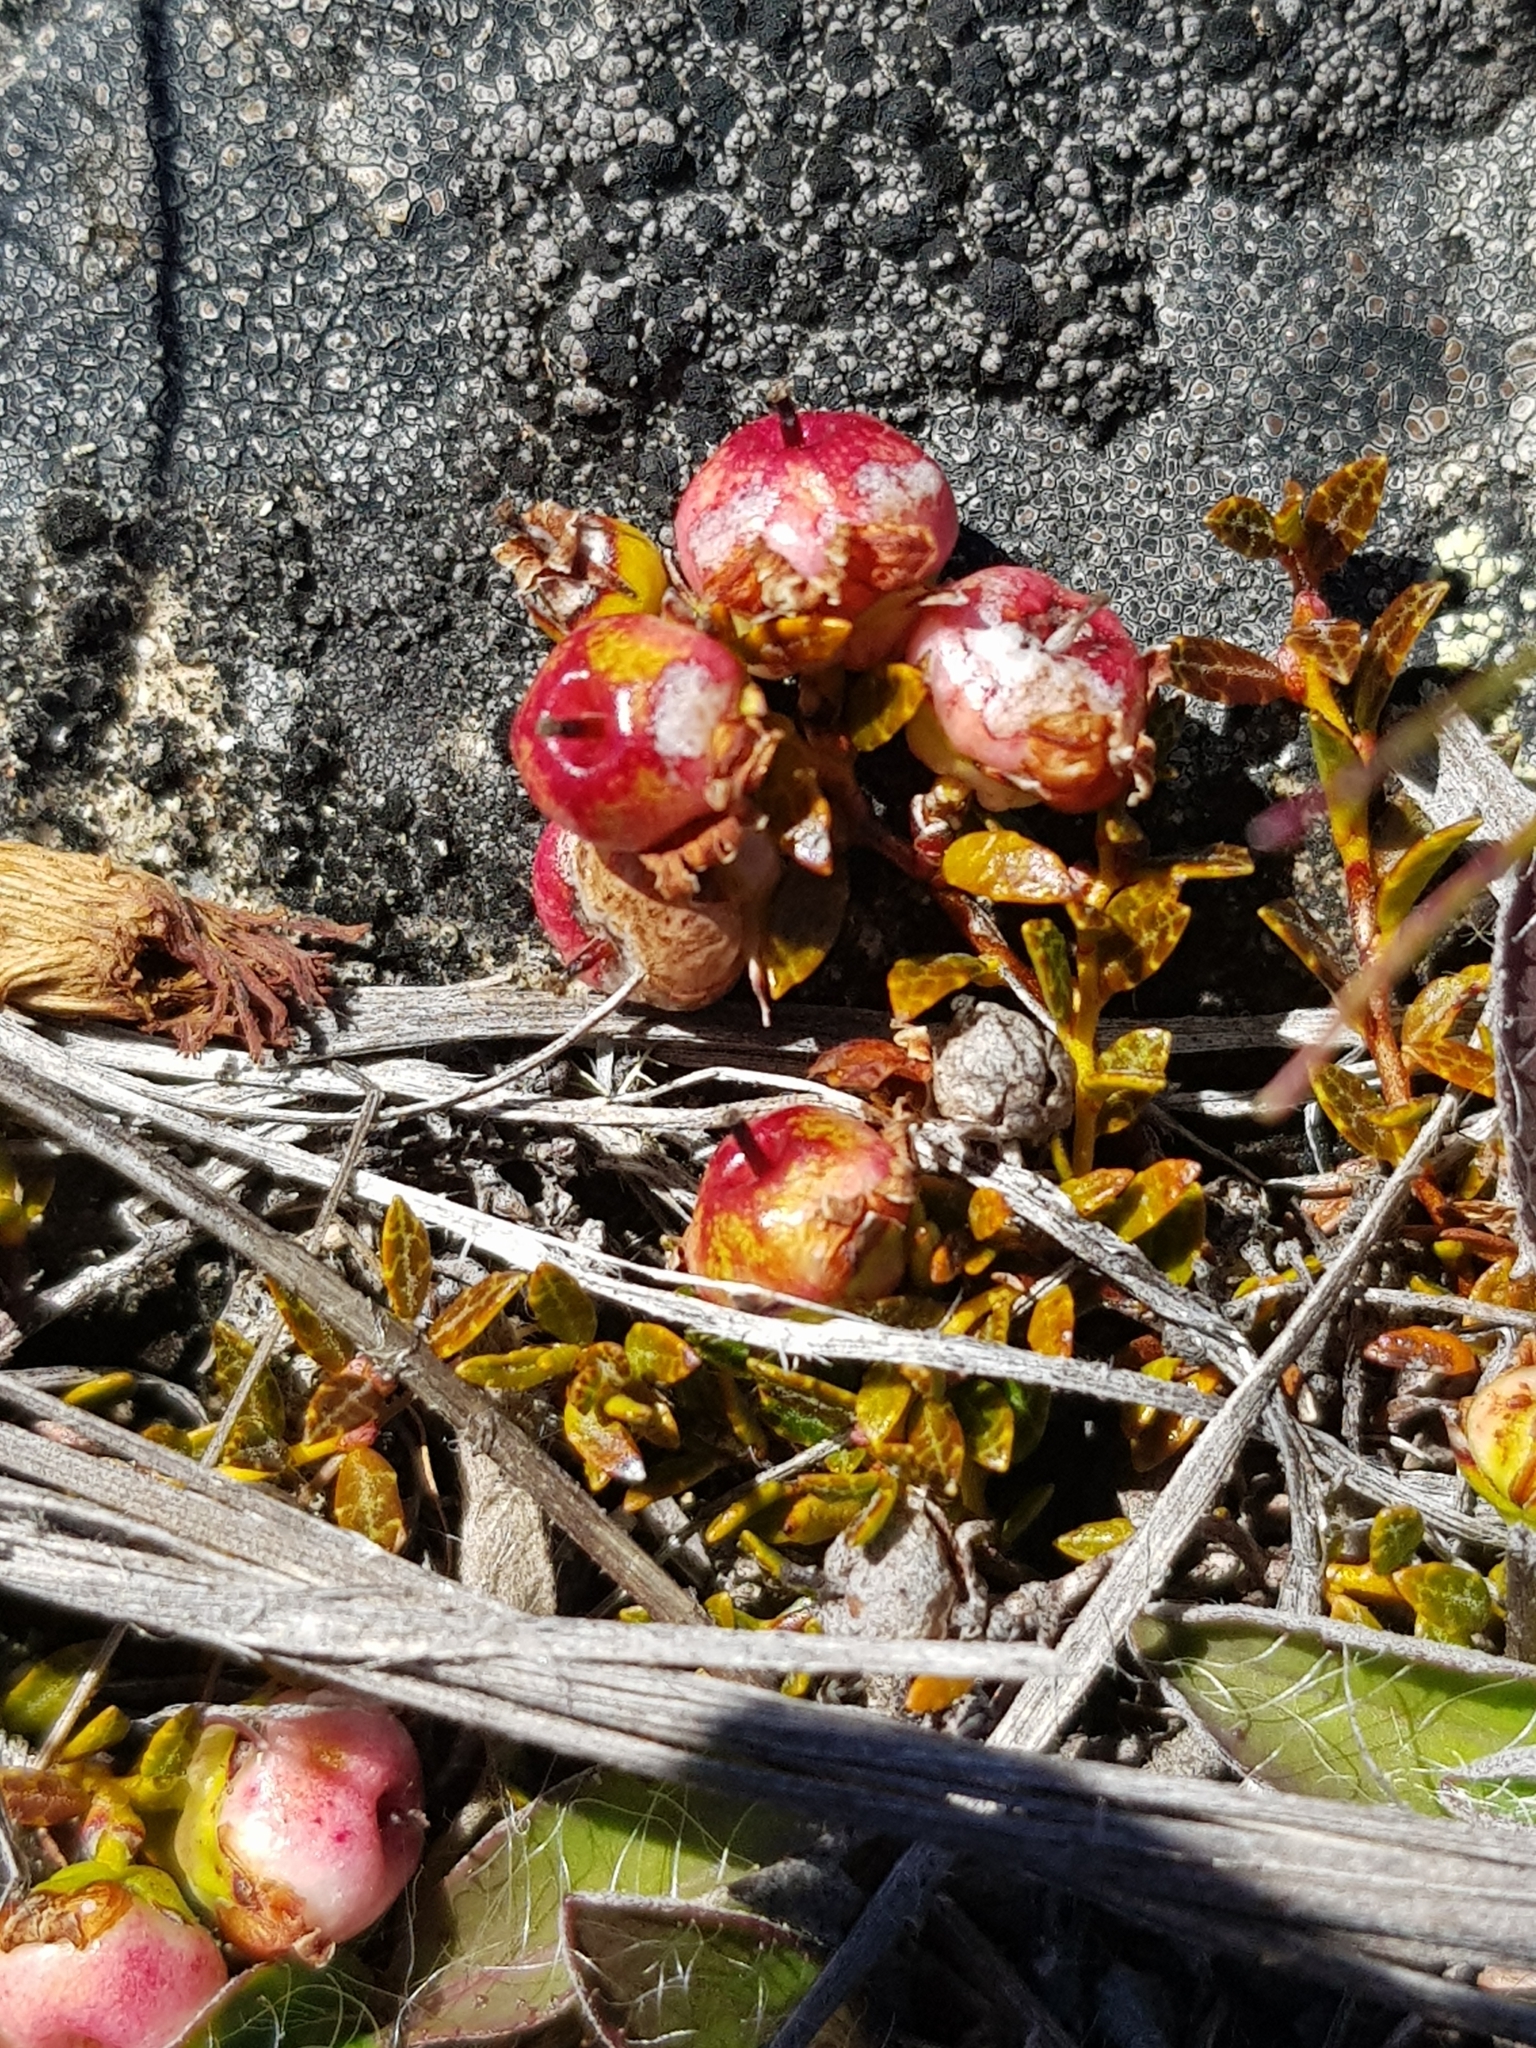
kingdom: Plantae
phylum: Tracheophyta
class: Magnoliopsida
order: Ericales
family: Ericaceae
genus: Gaultheria
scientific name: Gaultheria parvula
